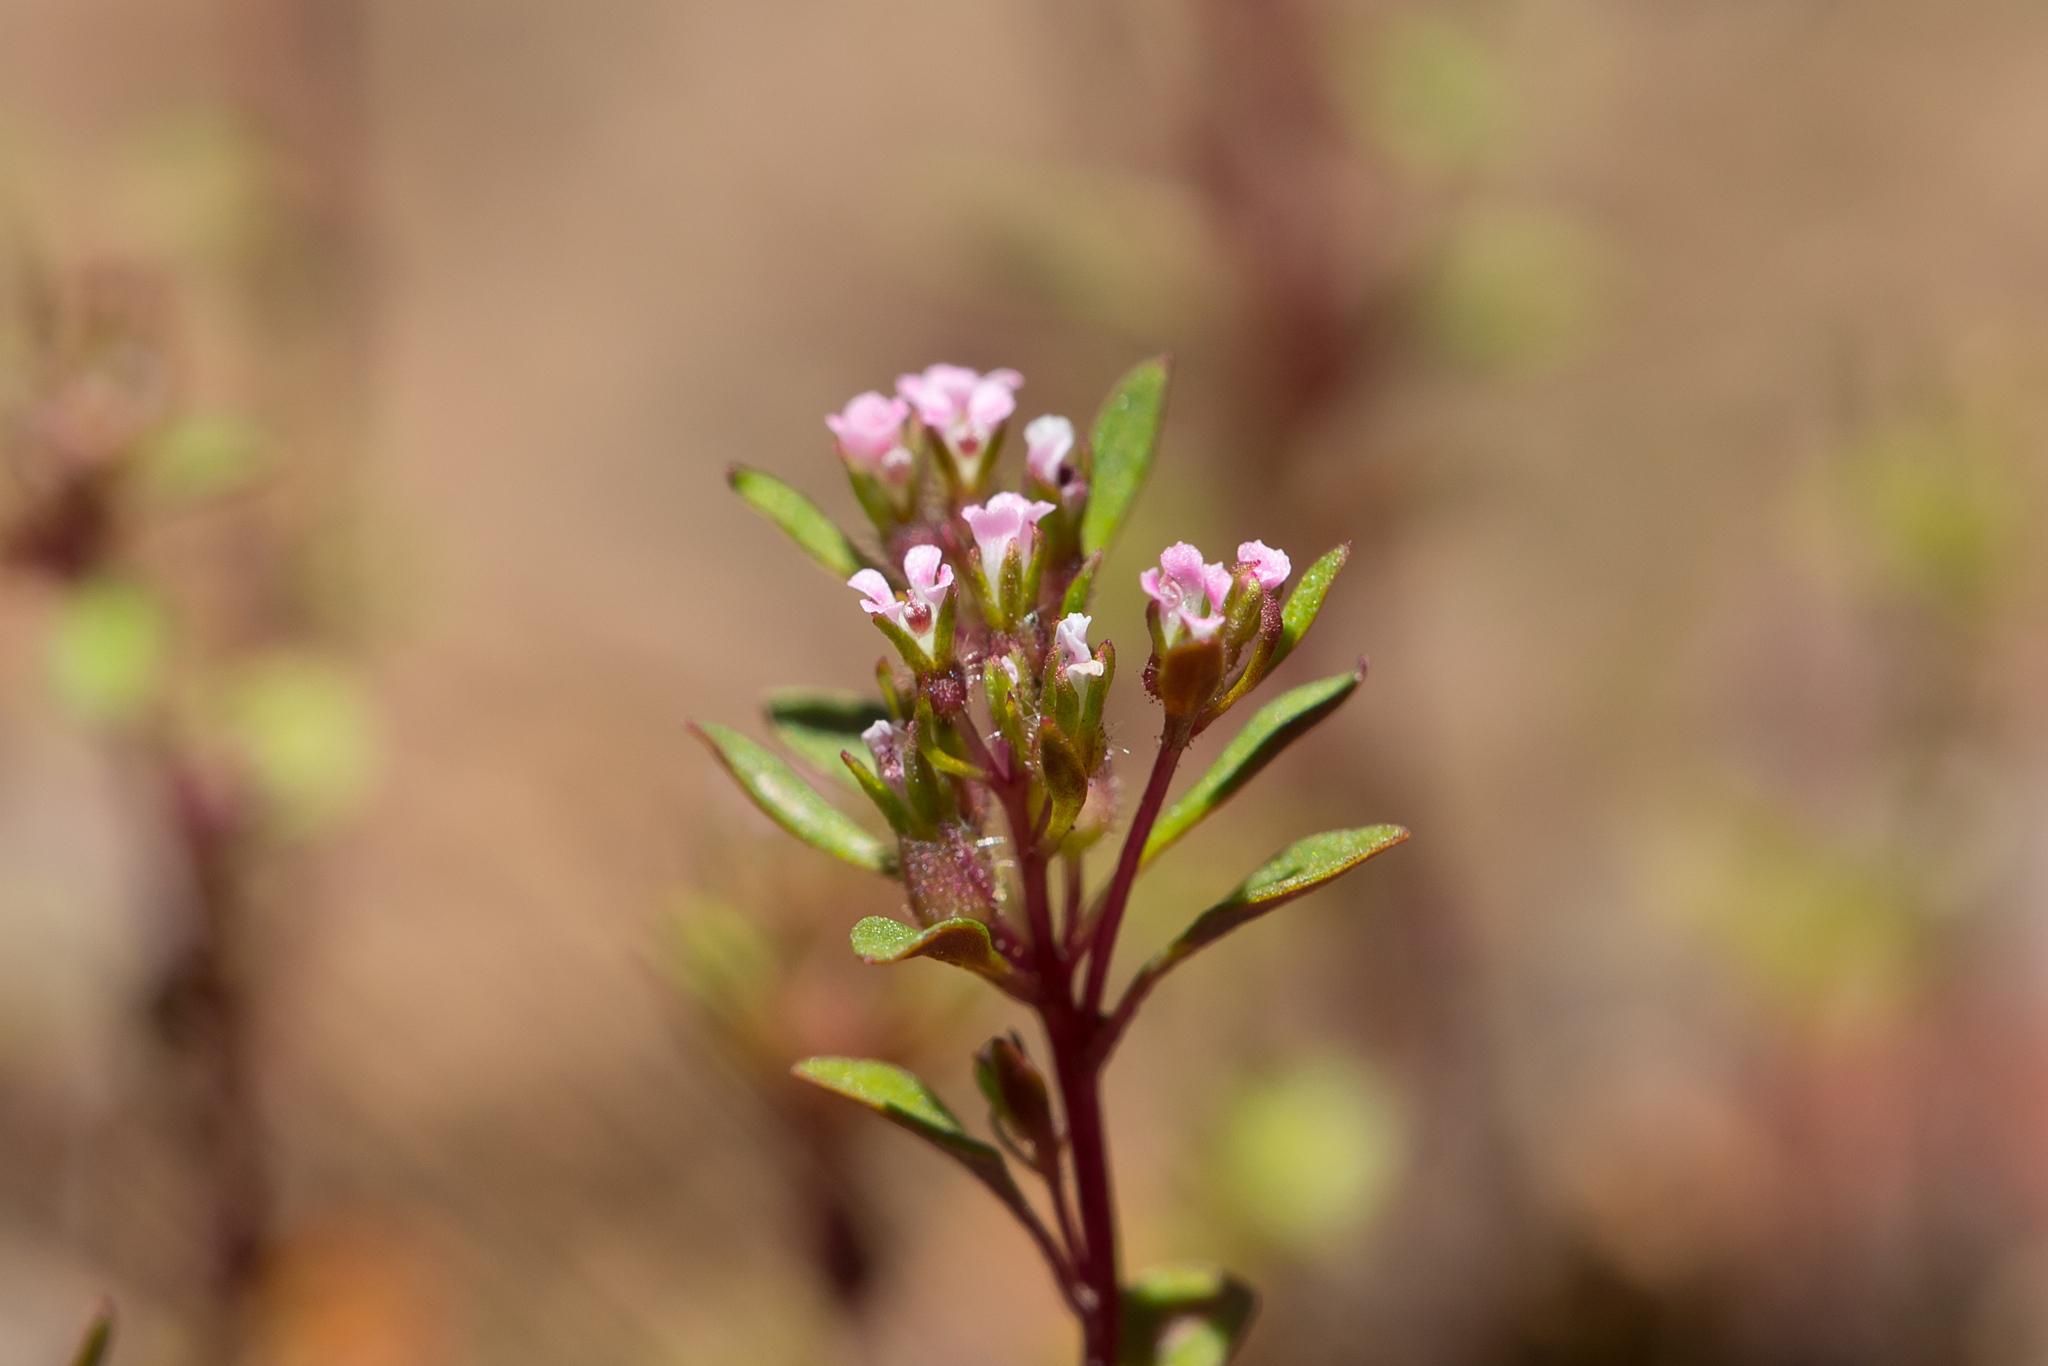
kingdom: Plantae
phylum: Tracheophyta
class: Magnoliopsida
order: Asterales
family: Stylidiaceae
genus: Levenhookia
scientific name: Levenhookia pusilla
